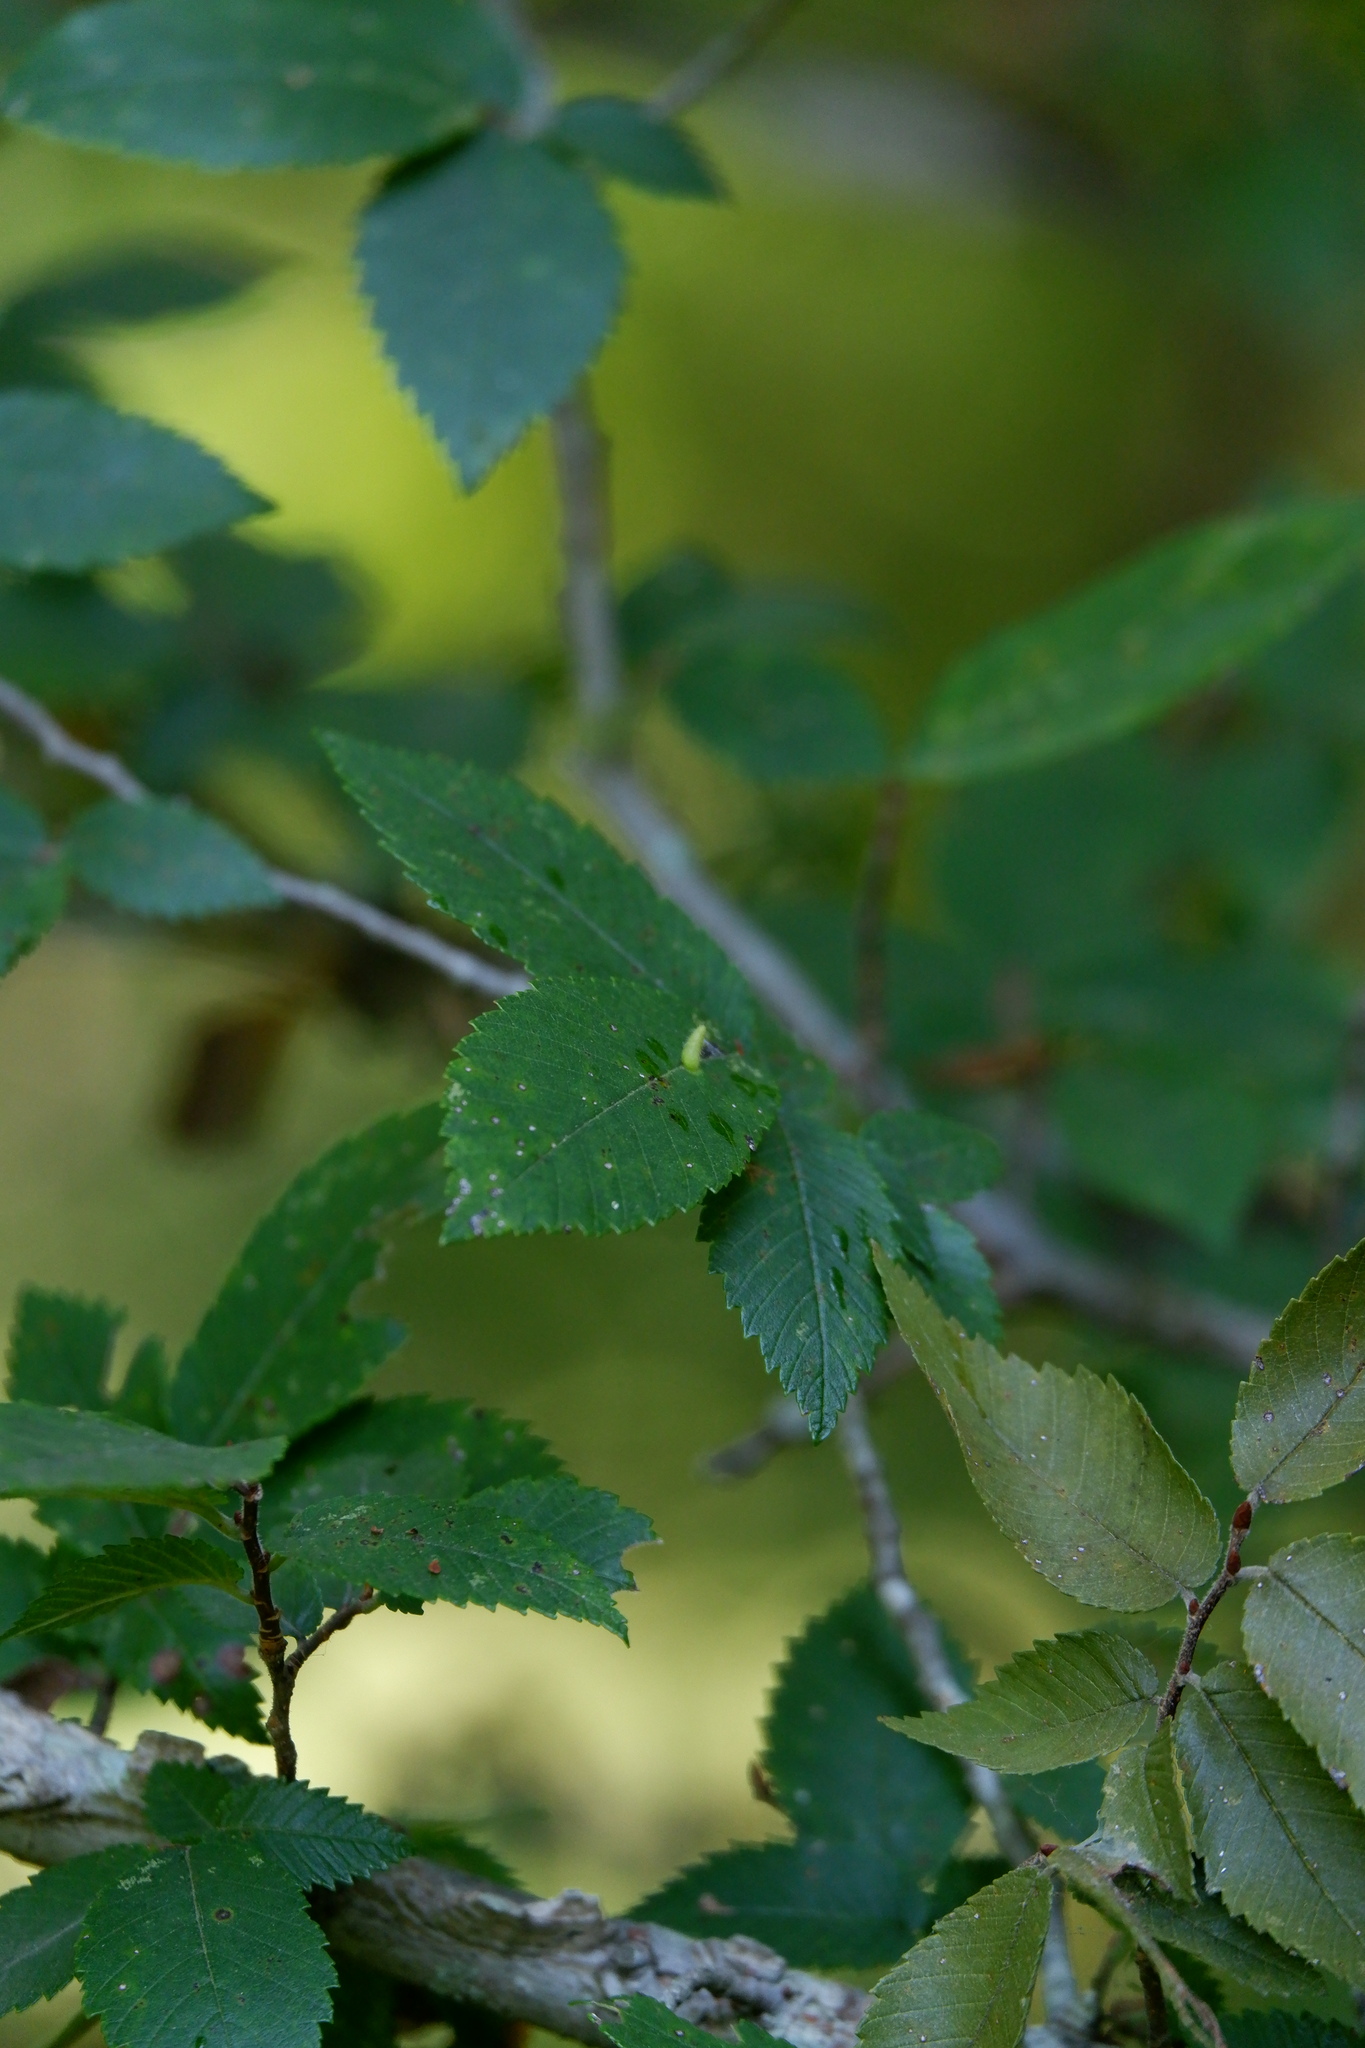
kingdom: Animalia
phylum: Arthropoda
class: Arachnida
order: Trombidiformes
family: Eriophyidae
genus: Aceria
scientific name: Aceria
